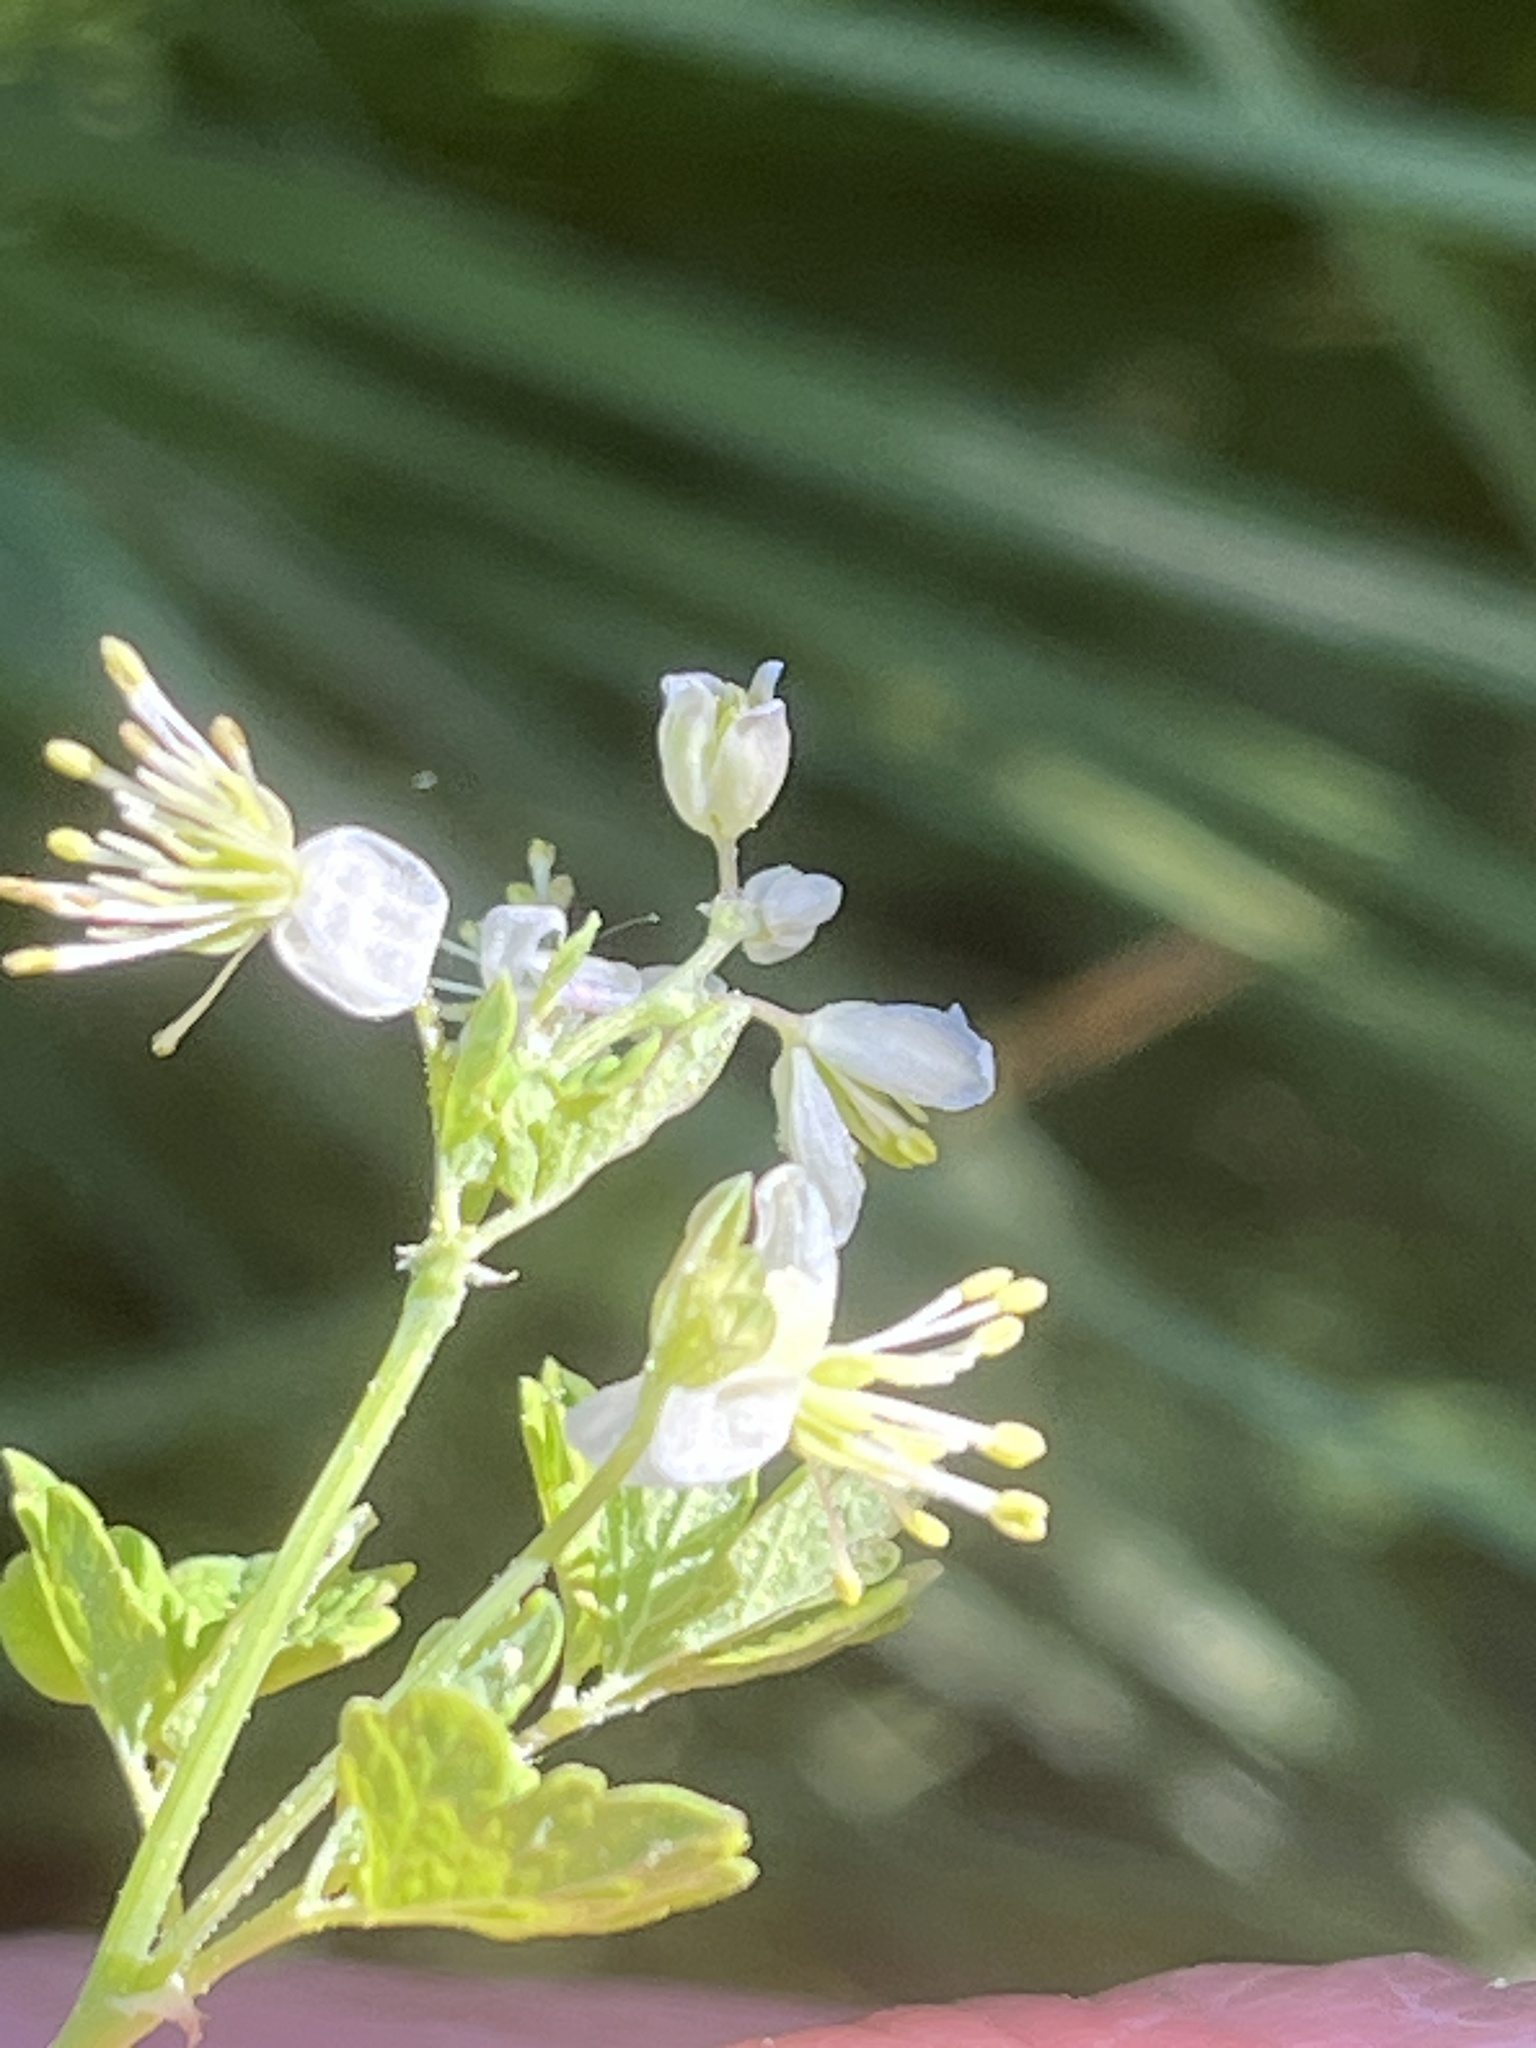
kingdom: Plantae
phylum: Tracheophyta
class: Magnoliopsida
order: Ranunculales
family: Ranunculaceae
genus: Thalictrum
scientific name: Thalictrum sparsiflorum
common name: Mountain meadow-rue
